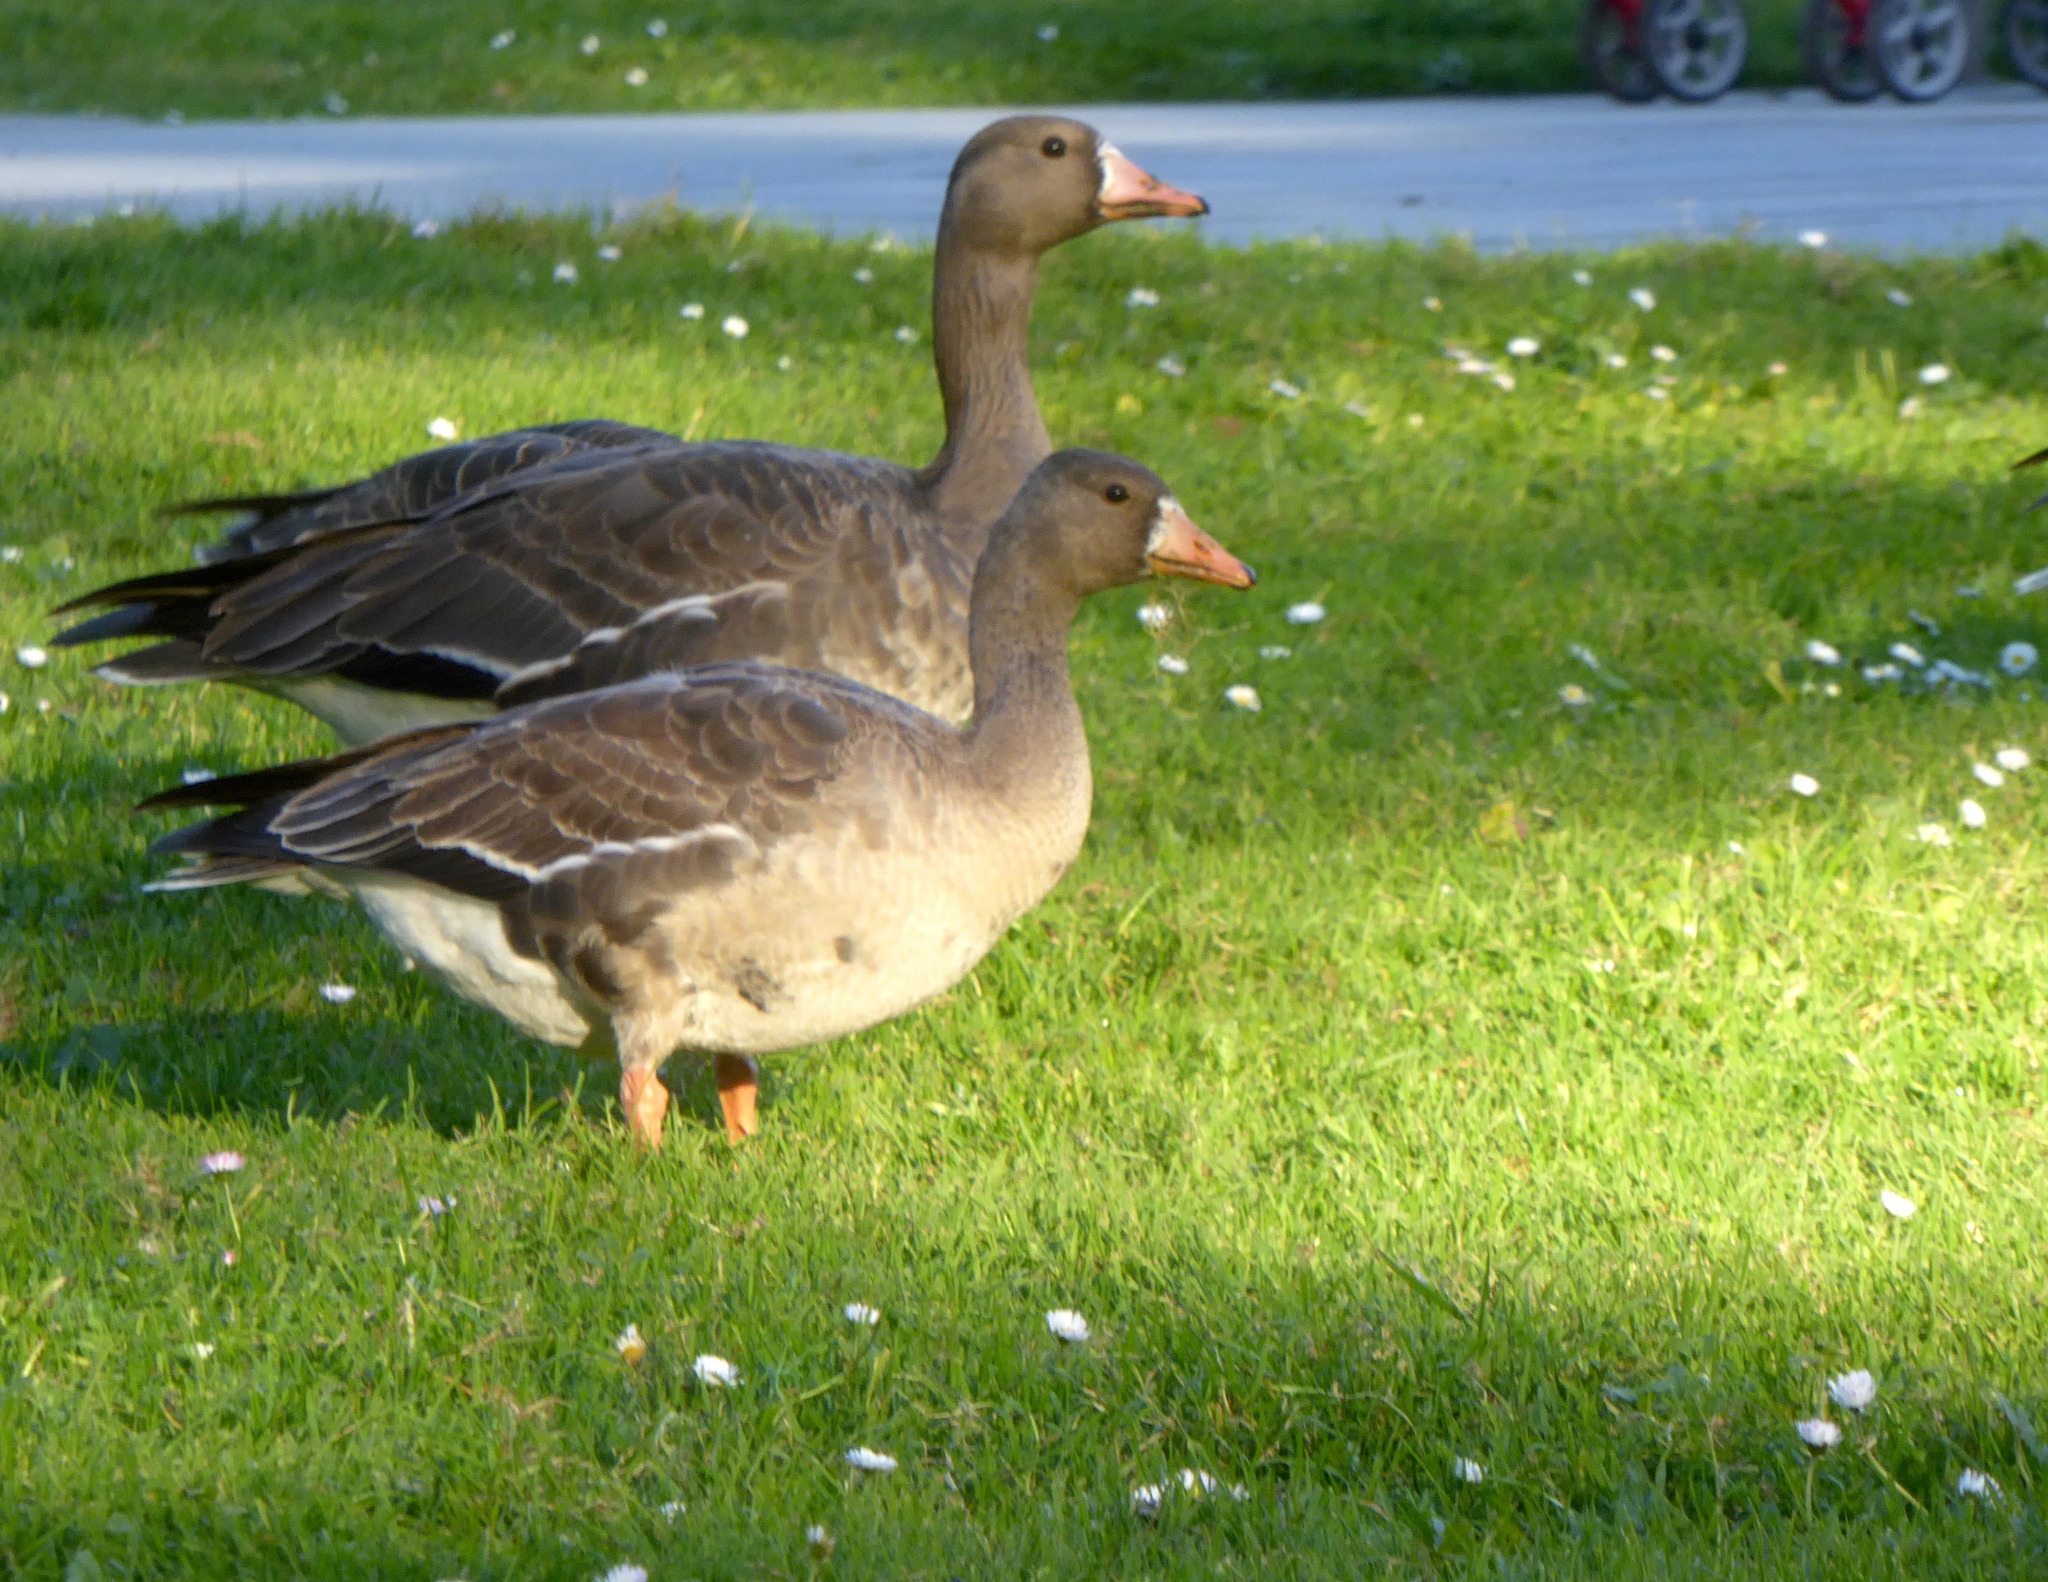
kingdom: Animalia
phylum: Chordata
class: Aves
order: Anseriformes
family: Anatidae
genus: Anser
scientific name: Anser albifrons
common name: Greater white-fronted goose
